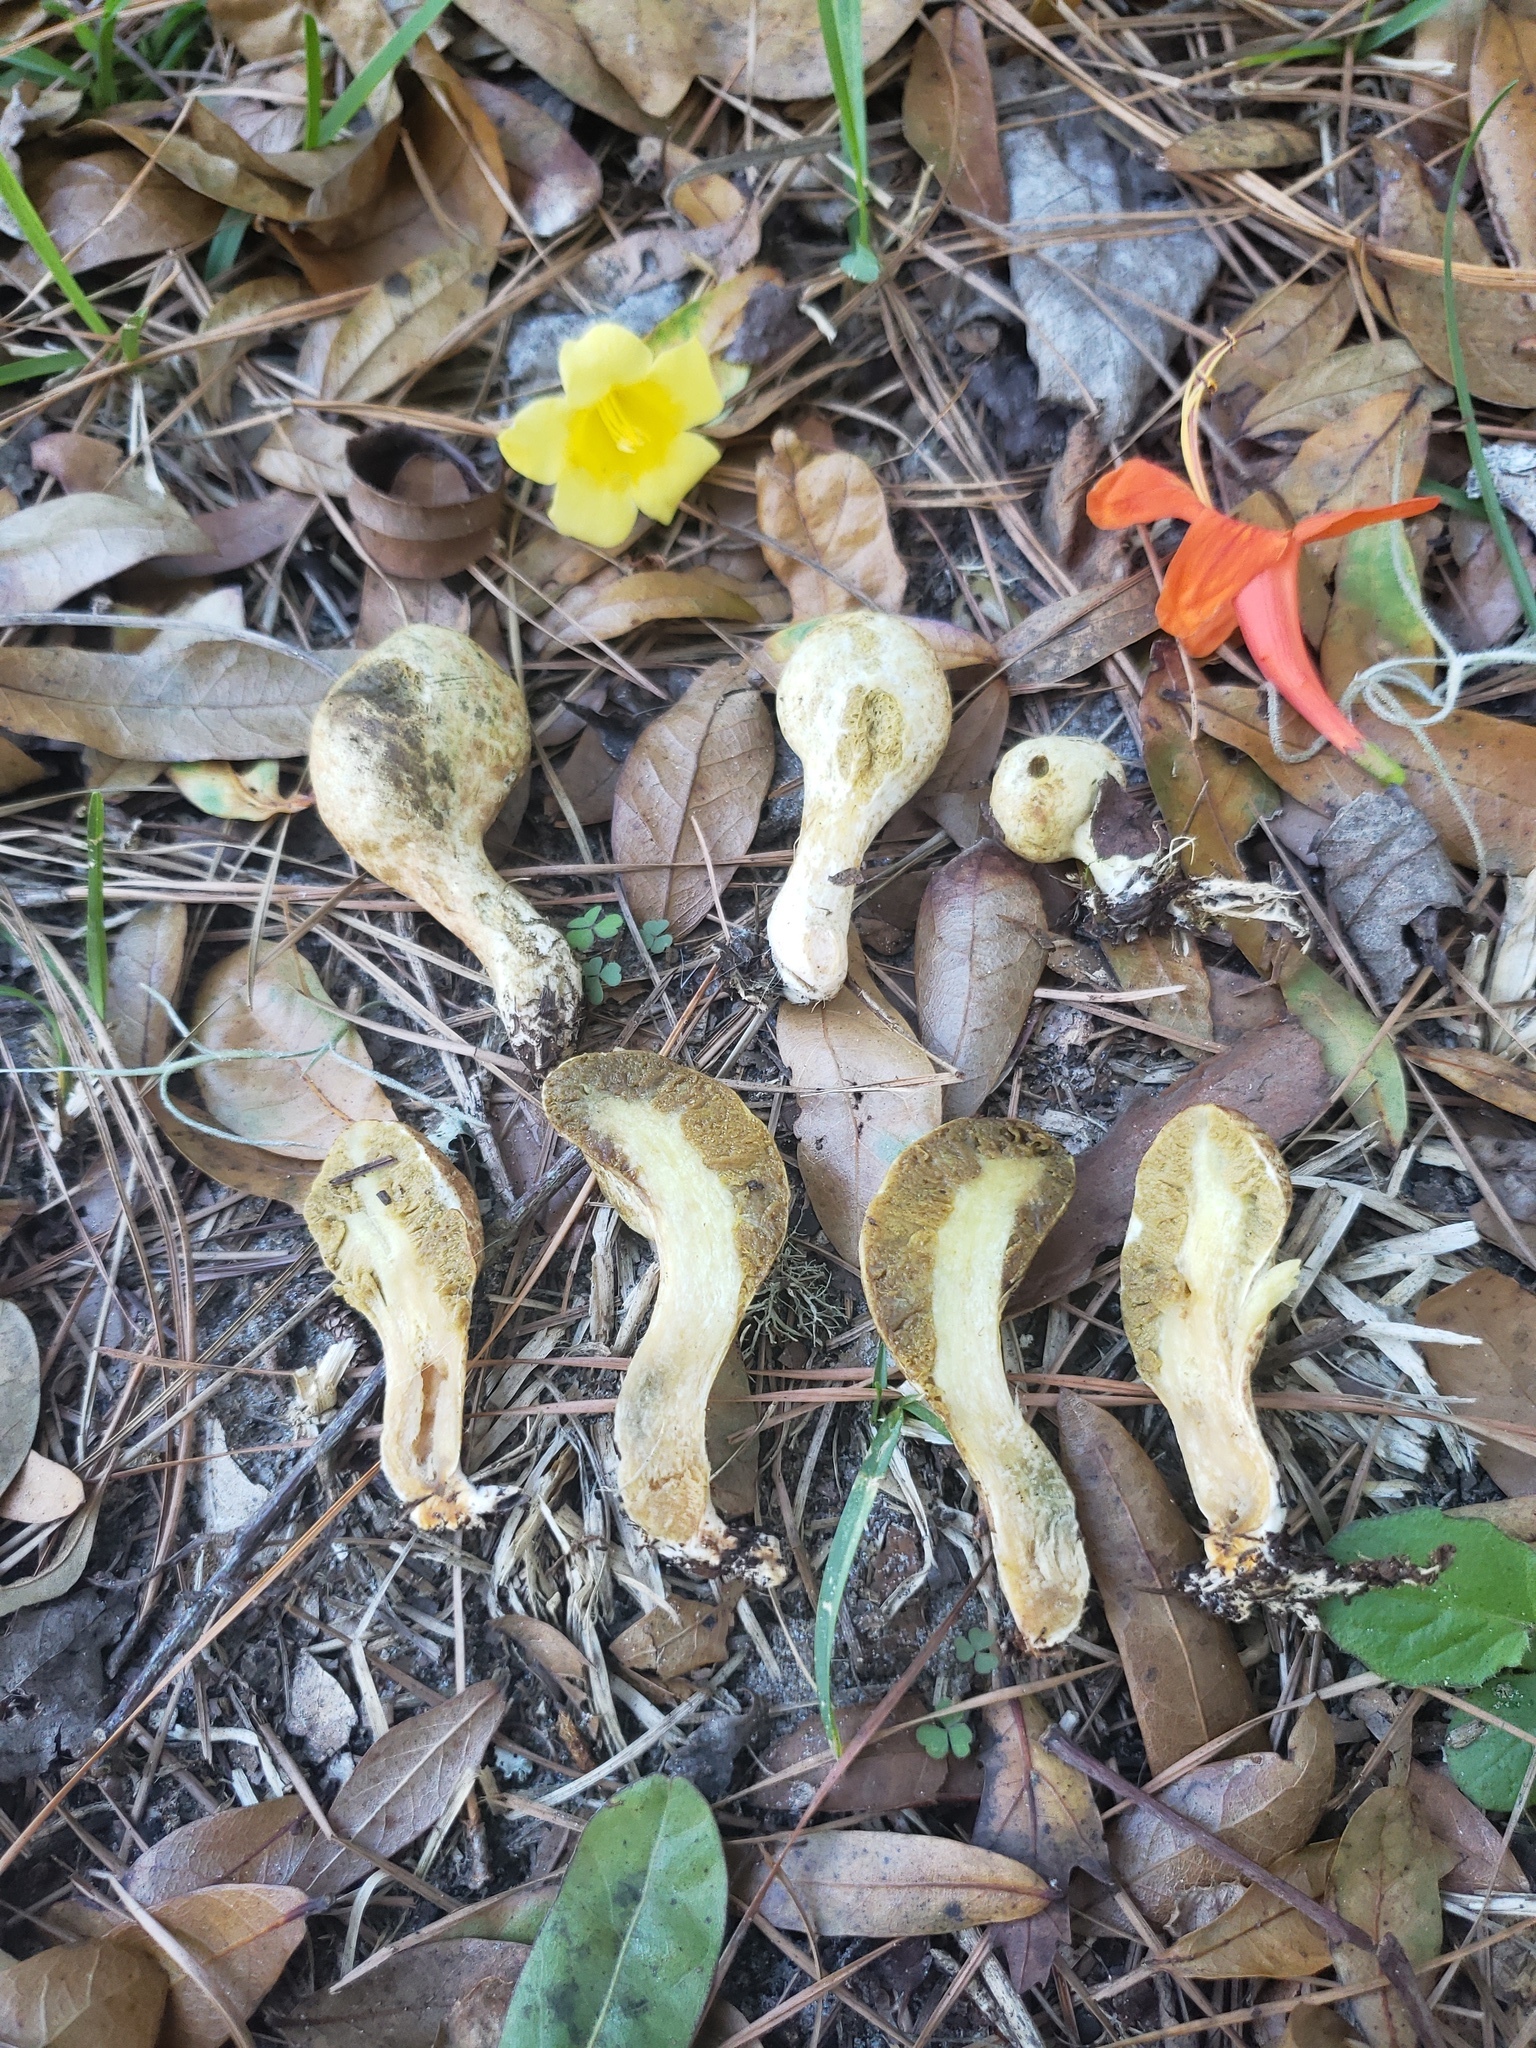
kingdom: Fungi
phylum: Basidiomycota
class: Agaricomycetes
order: Boletales
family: Rhizopogonaceae
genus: Rhopalogaster
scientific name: Rhopalogaster transversarius
